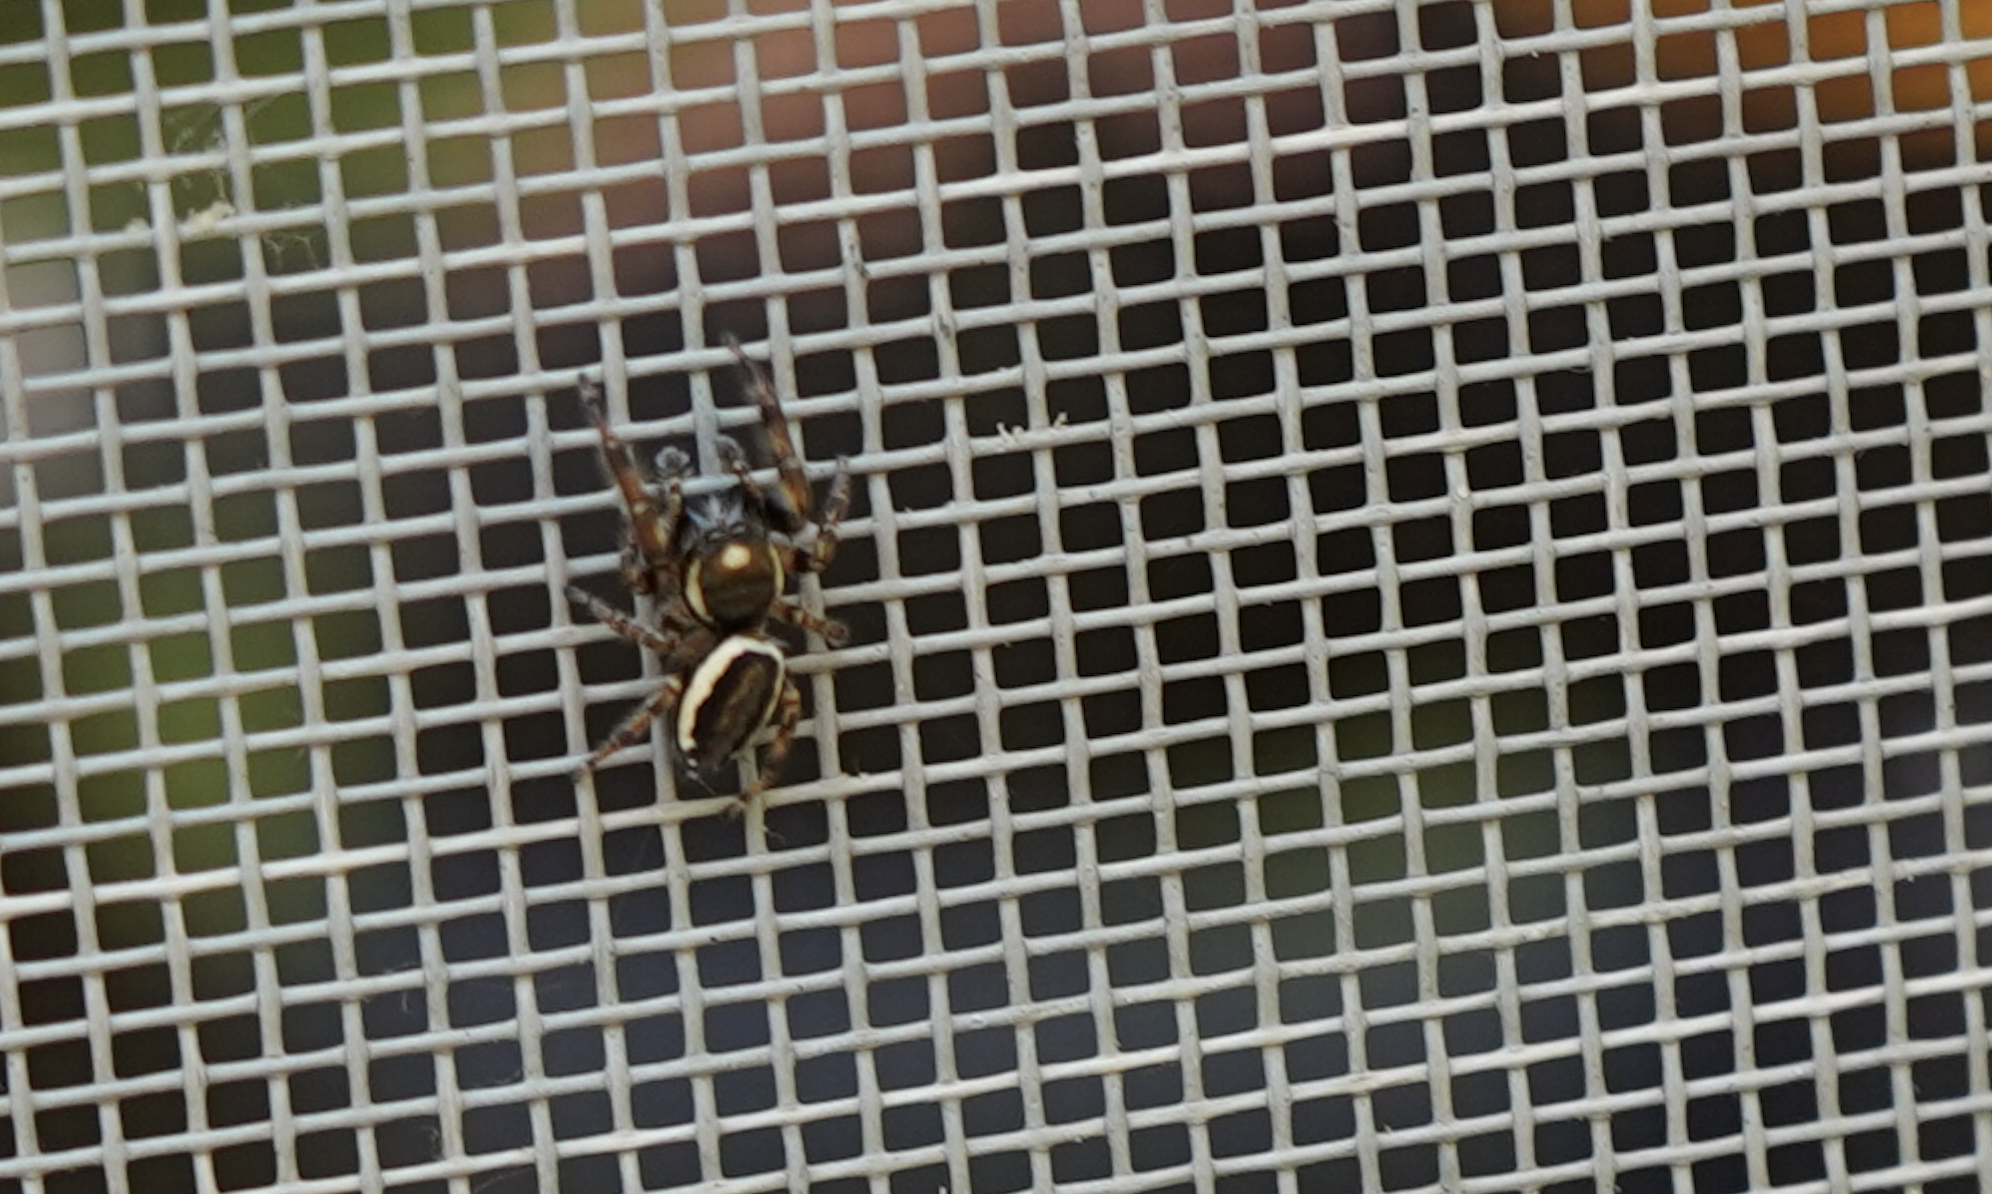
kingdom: Animalia
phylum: Arthropoda
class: Arachnida
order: Araneae
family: Salticidae
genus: Eris
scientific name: Eris militaris
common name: Bronze jumper
